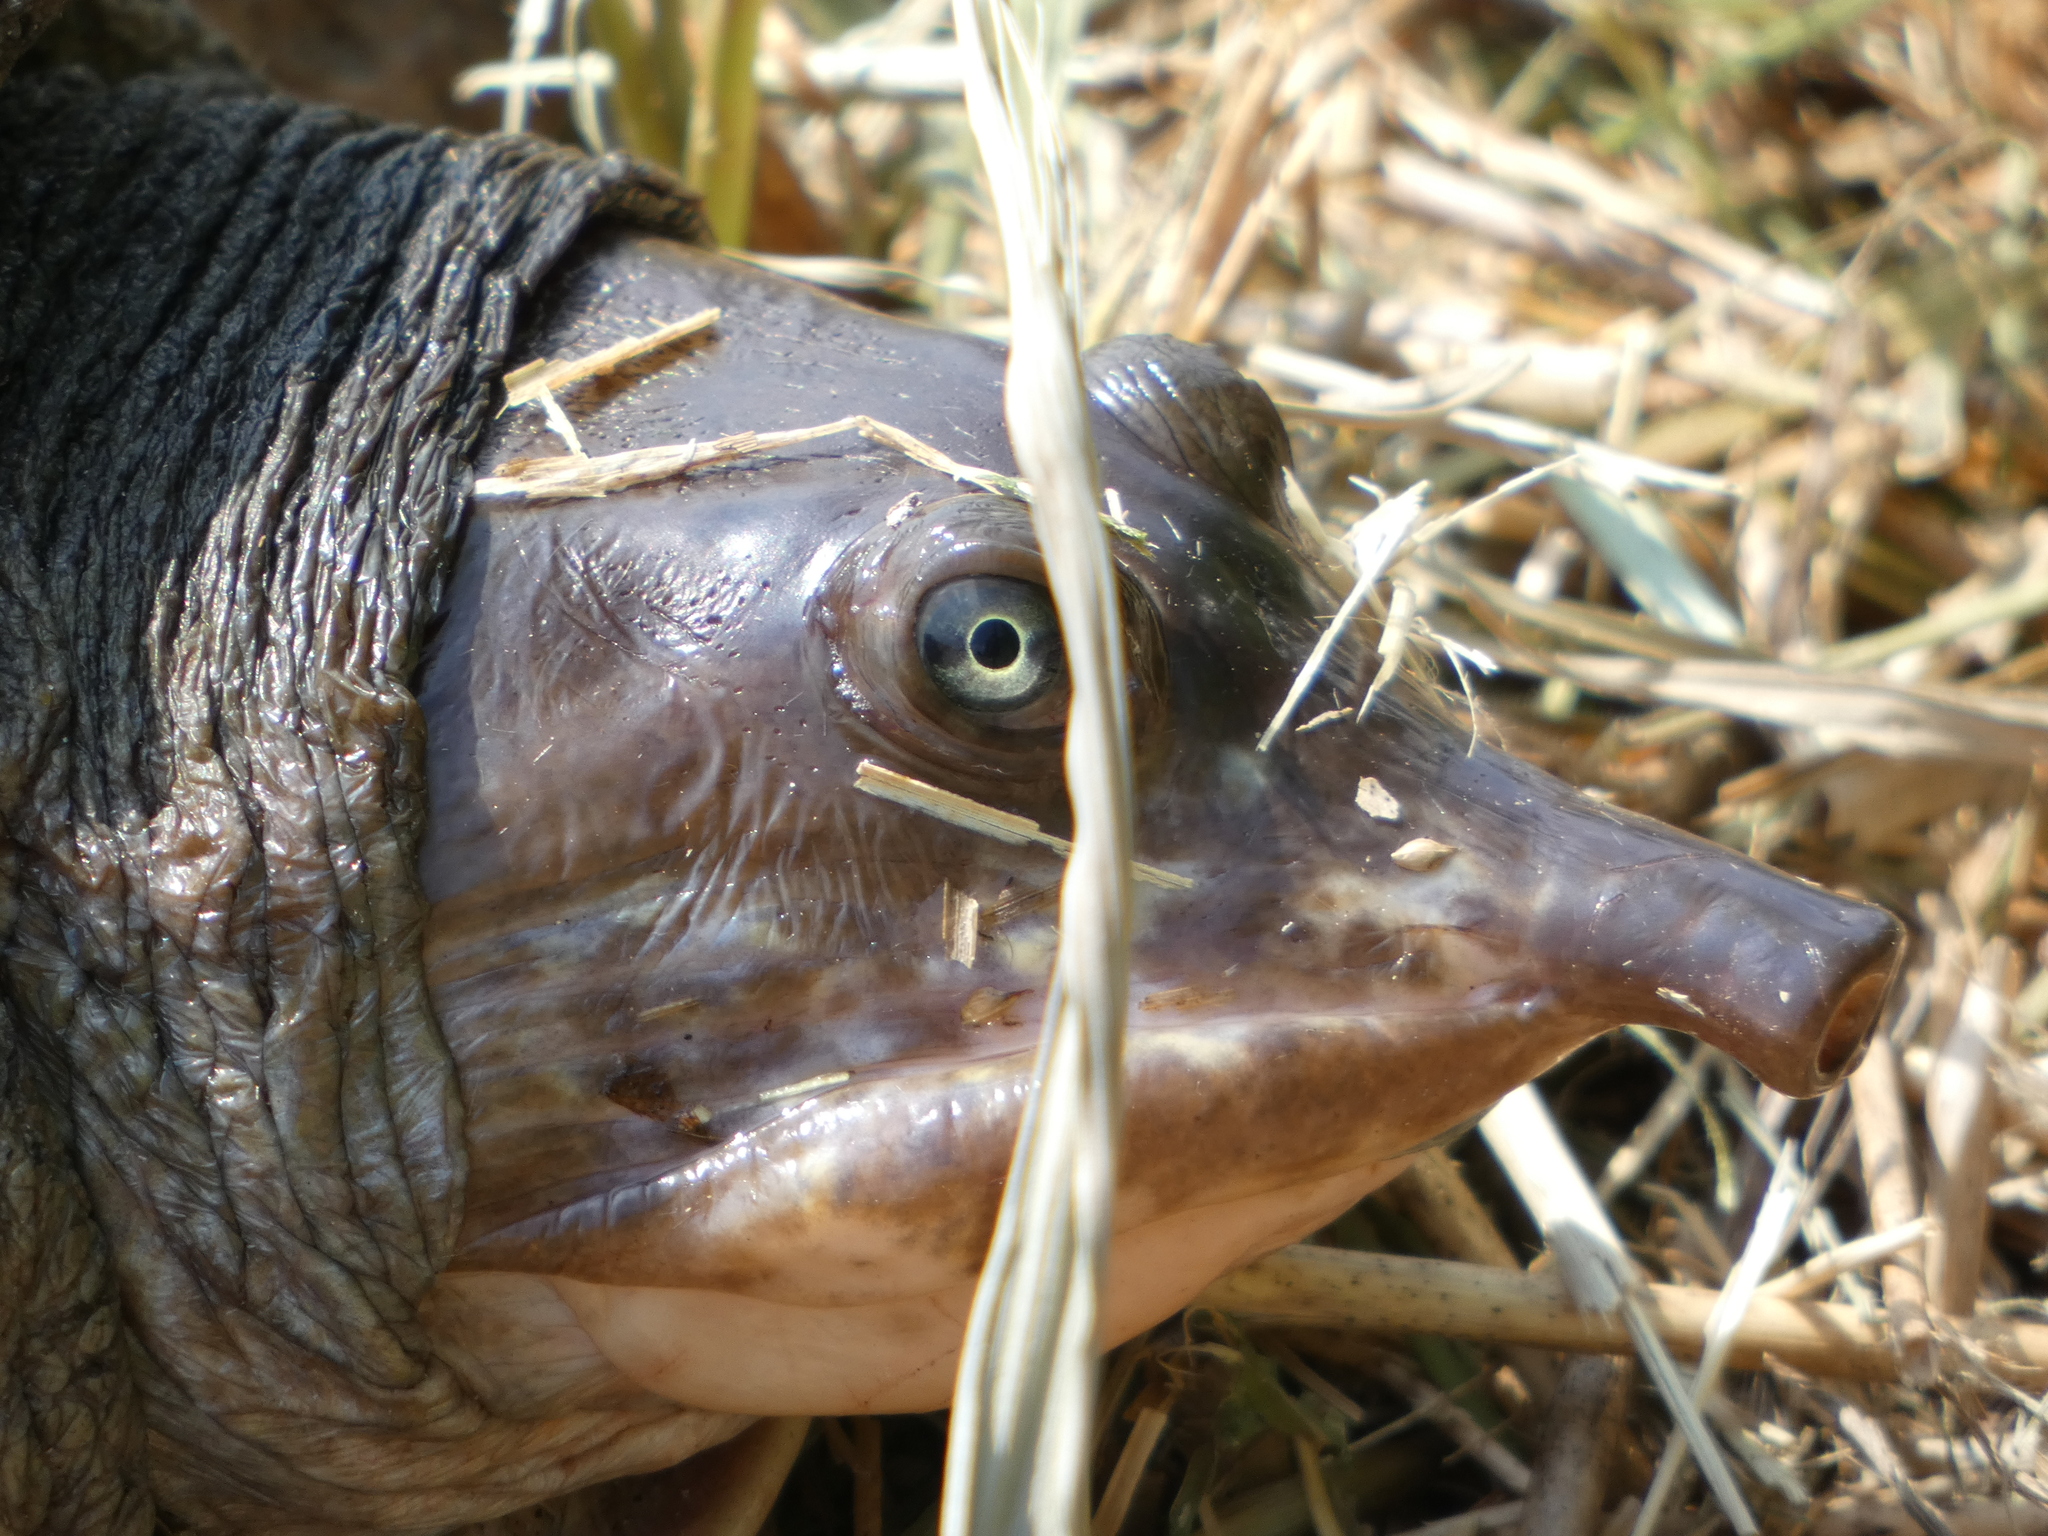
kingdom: Animalia
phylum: Chordata
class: Testudines
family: Trionychidae
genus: Apalone
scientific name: Apalone ferox
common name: Florida softshell turtle
